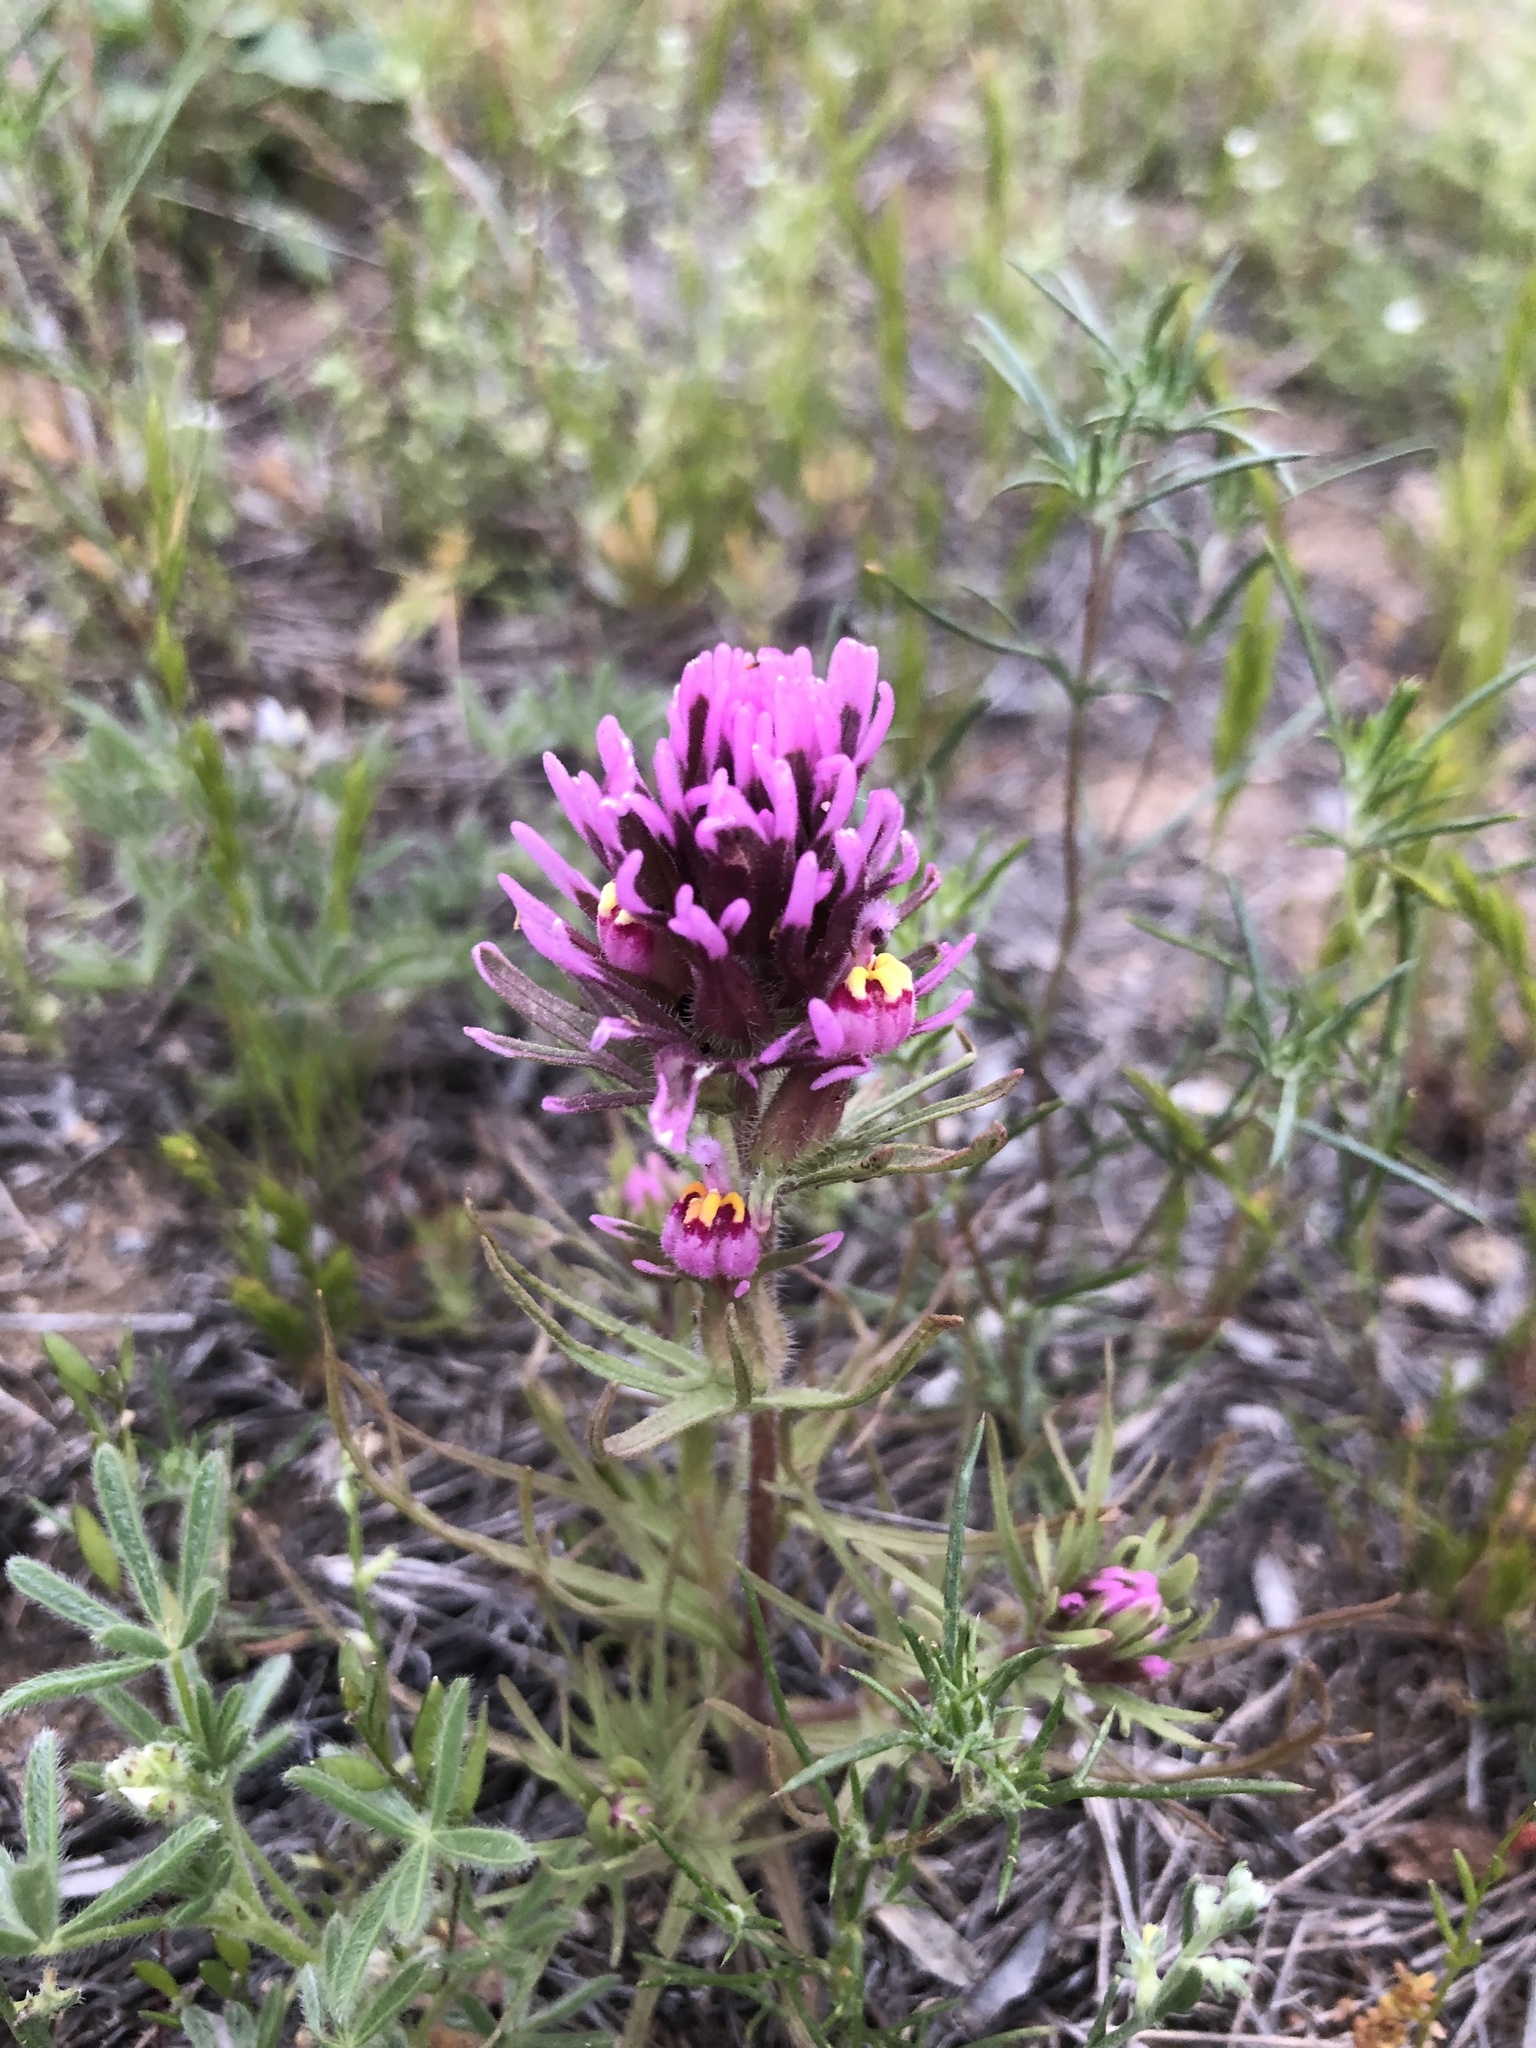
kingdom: Plantae
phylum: Tracheophyta
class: Magnoliopsida
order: Lamiales
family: Orobanchaceae
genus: Castilleja
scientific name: Castilleja exserta
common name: Purple owl-clover
